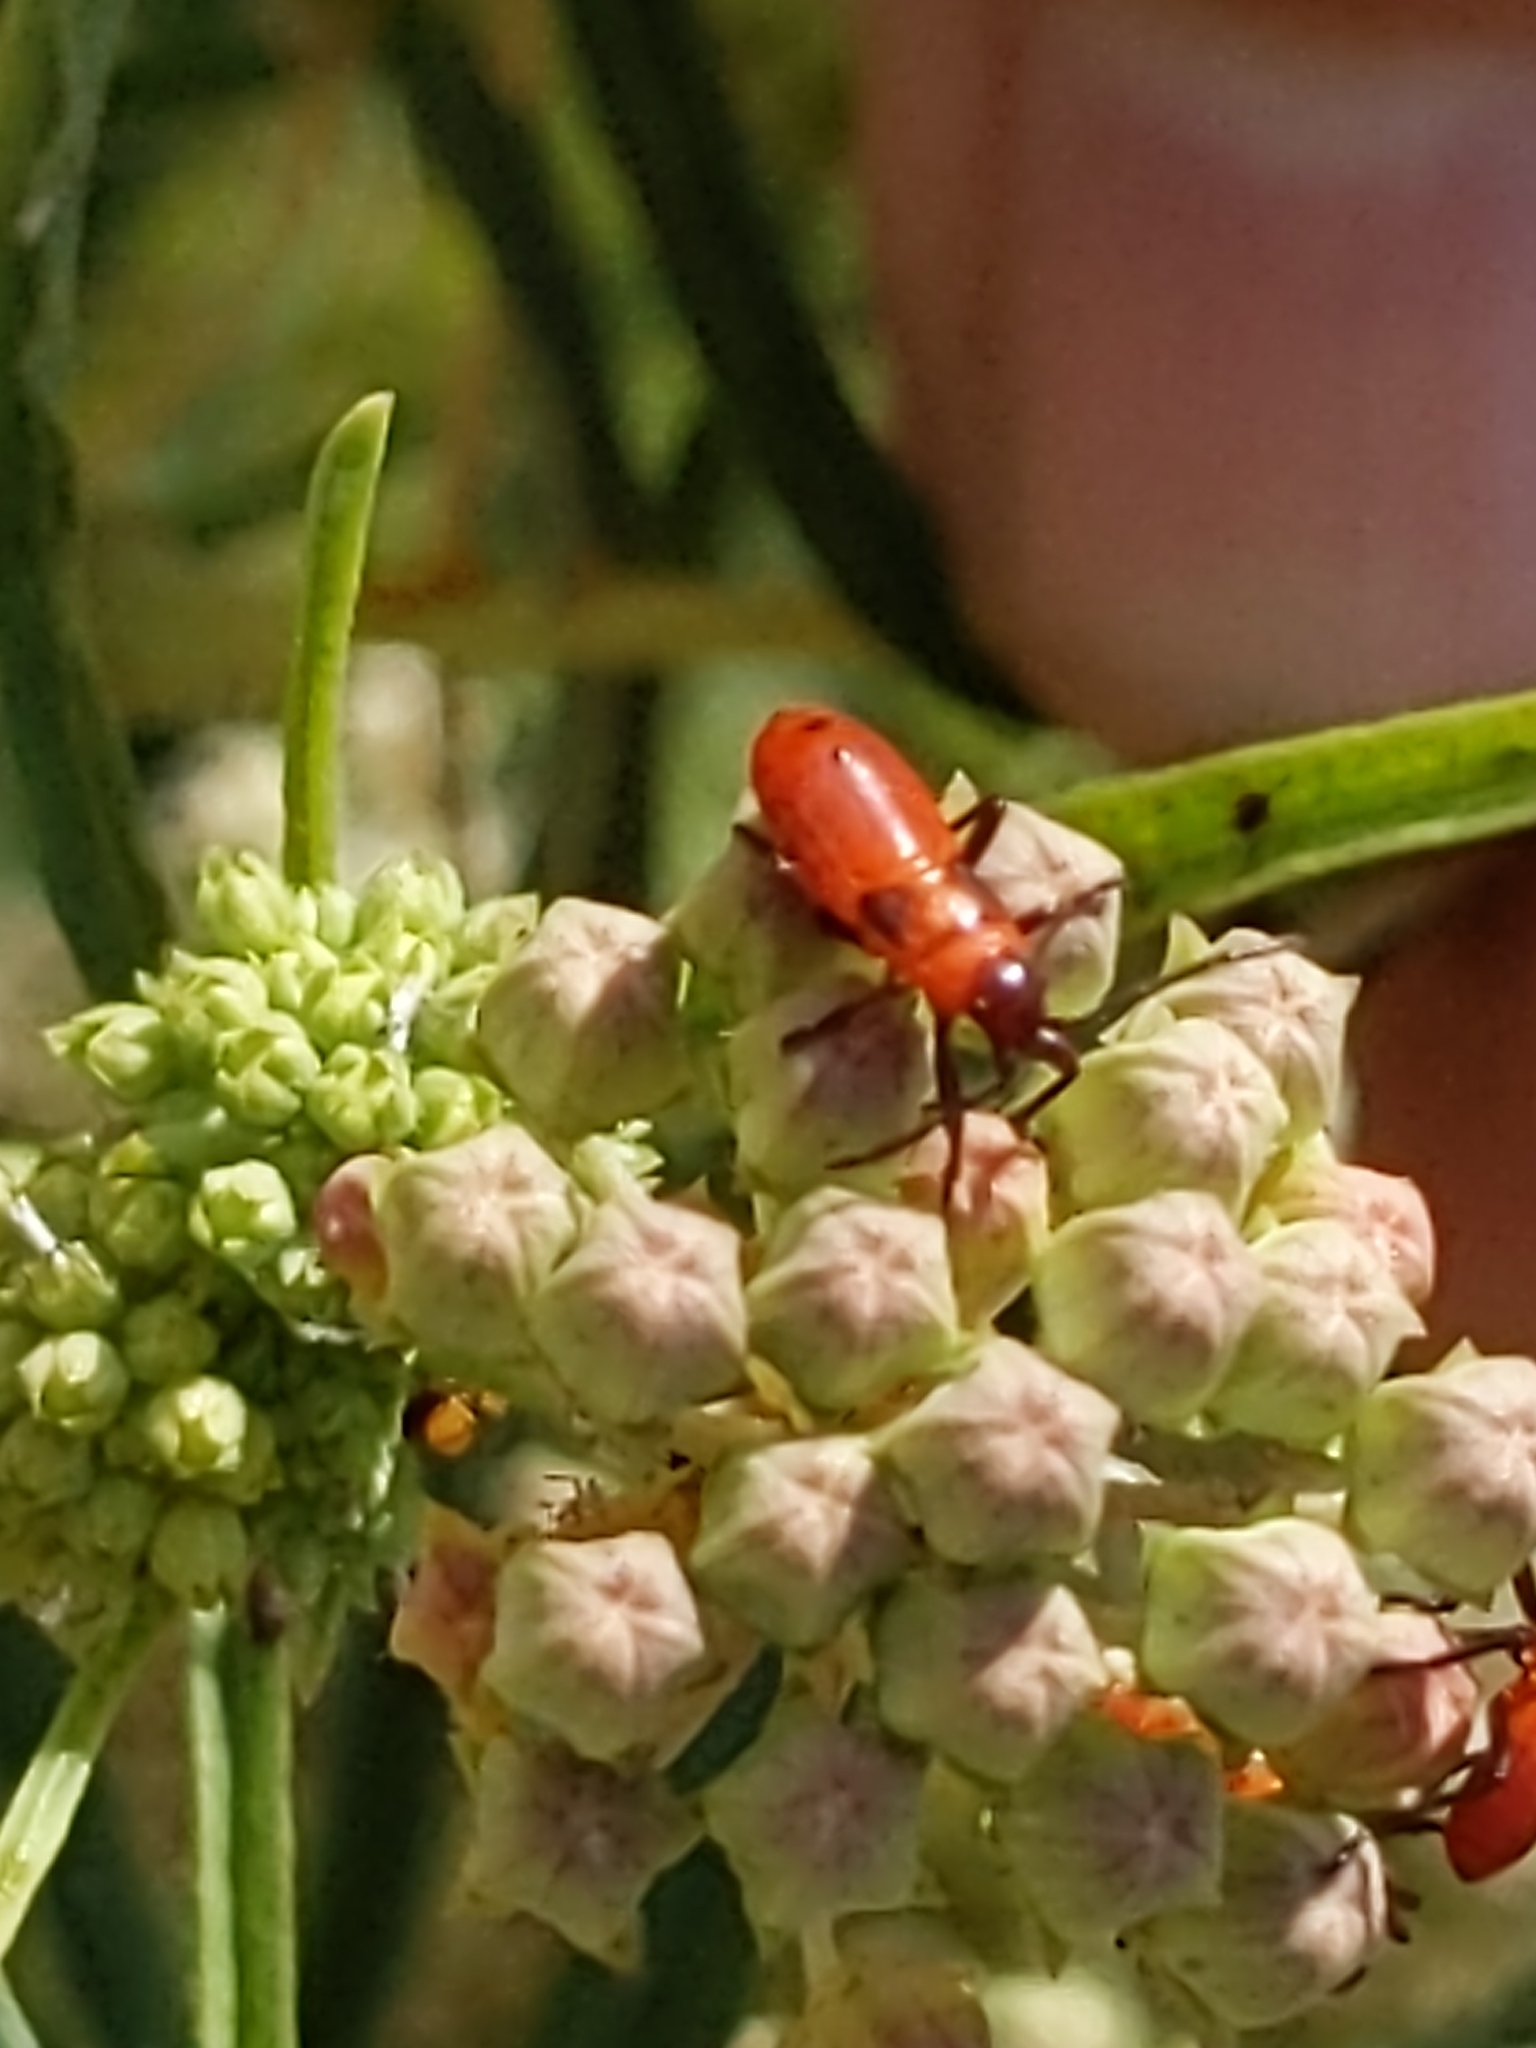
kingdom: Animalia
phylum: Arthropoda
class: Insecta
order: Hemiptera
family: Lygaeidae
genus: Oncopeltus
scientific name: Oncopeltus fasciatus
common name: Large milkweed bug
